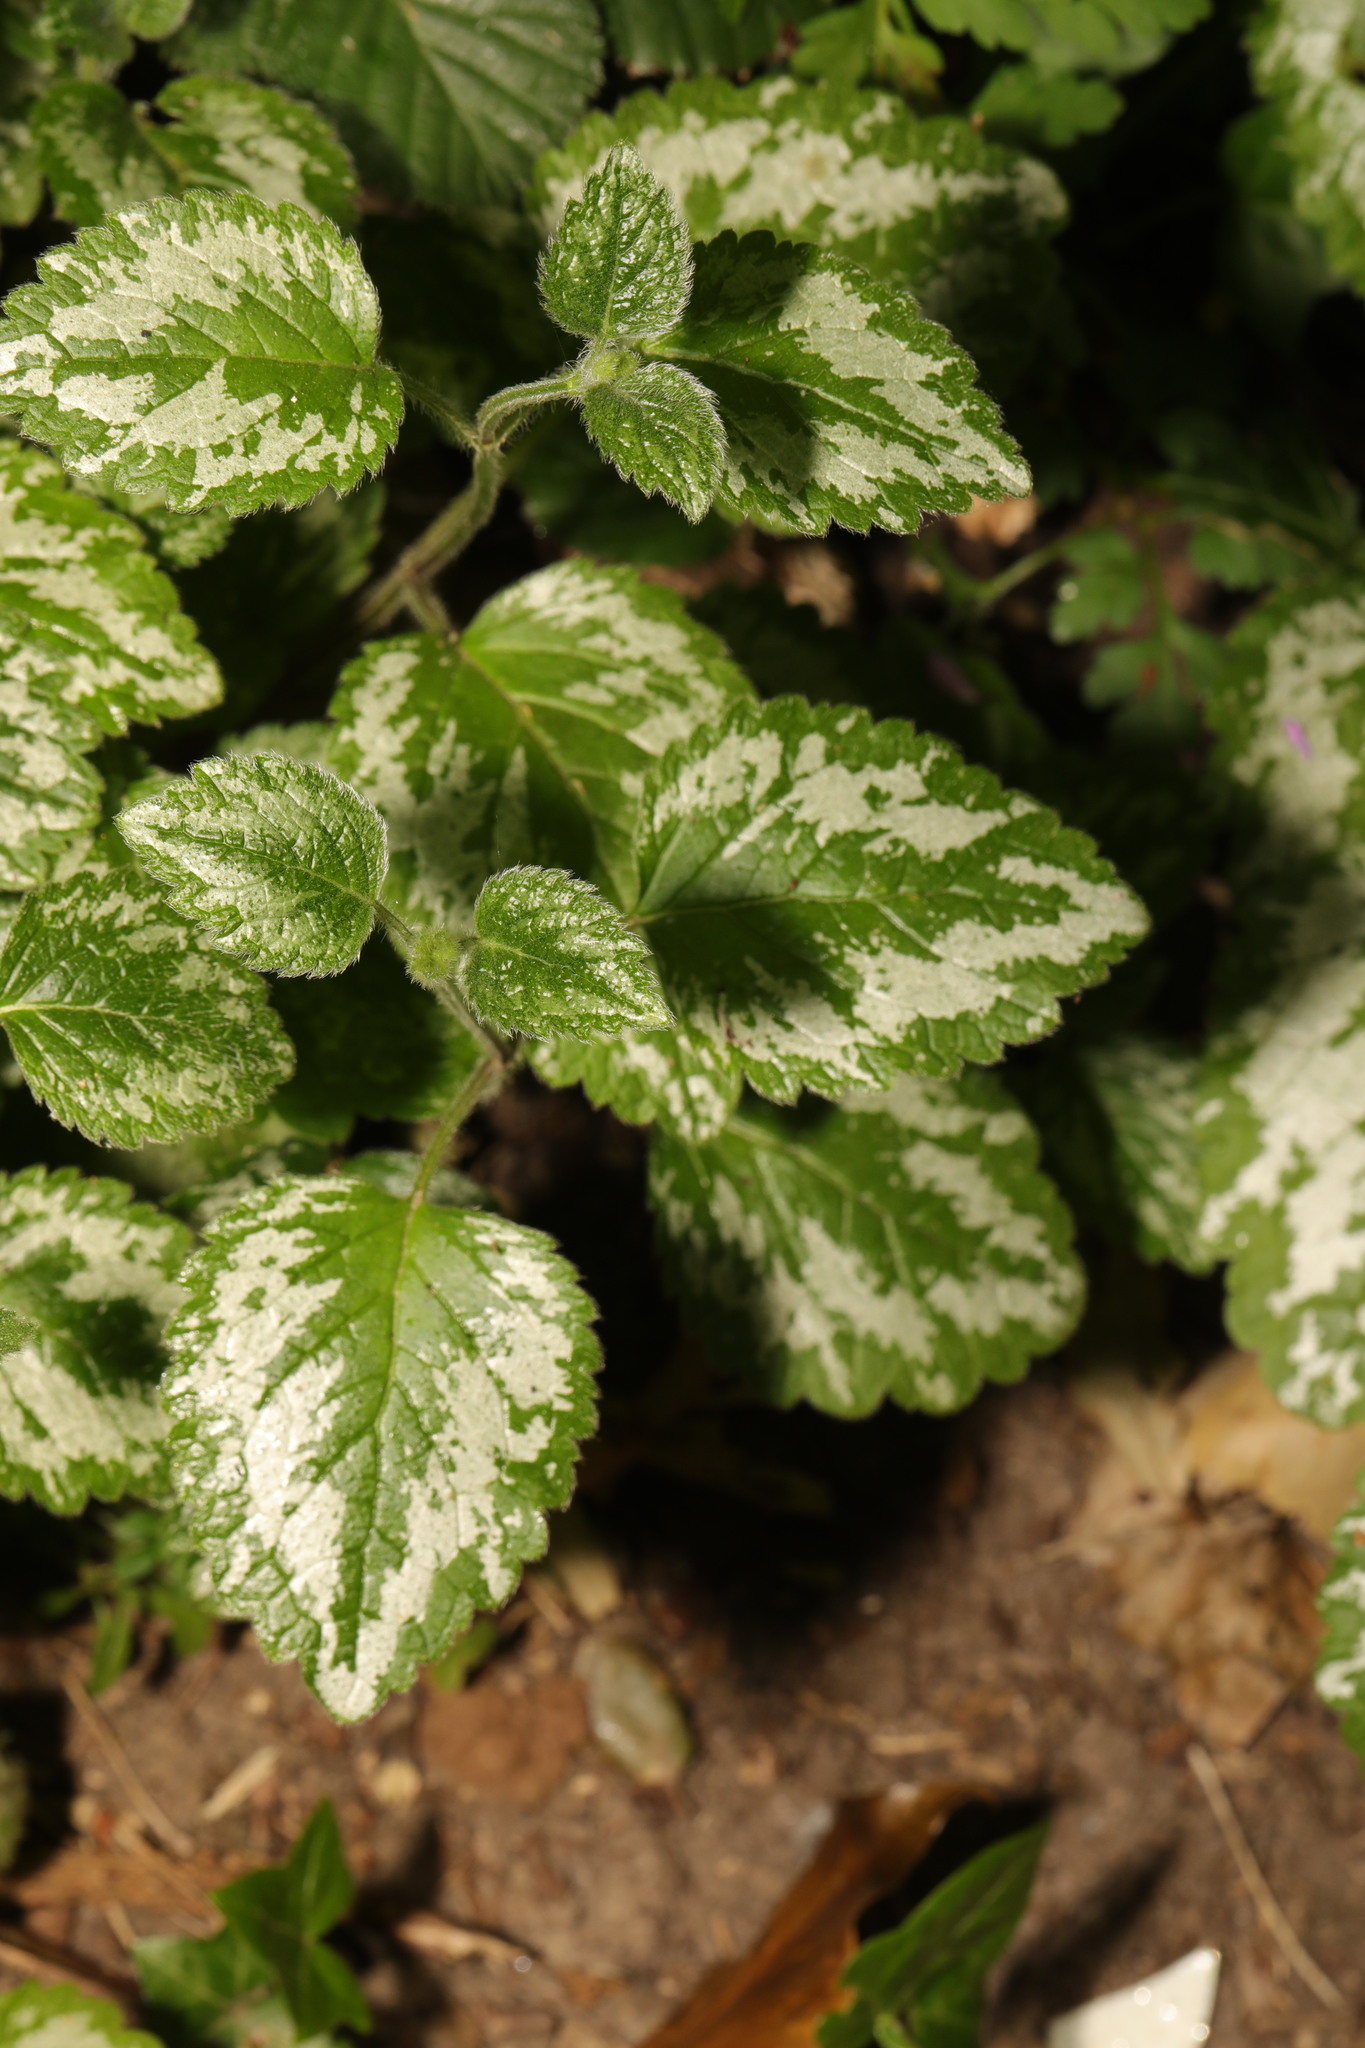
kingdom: Plantae
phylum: Tracheophyta
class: Magnoliopsida
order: Lamiales
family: Lamiaceae
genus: Lamium
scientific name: Lamium galeobdolon
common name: Yellow archangel
